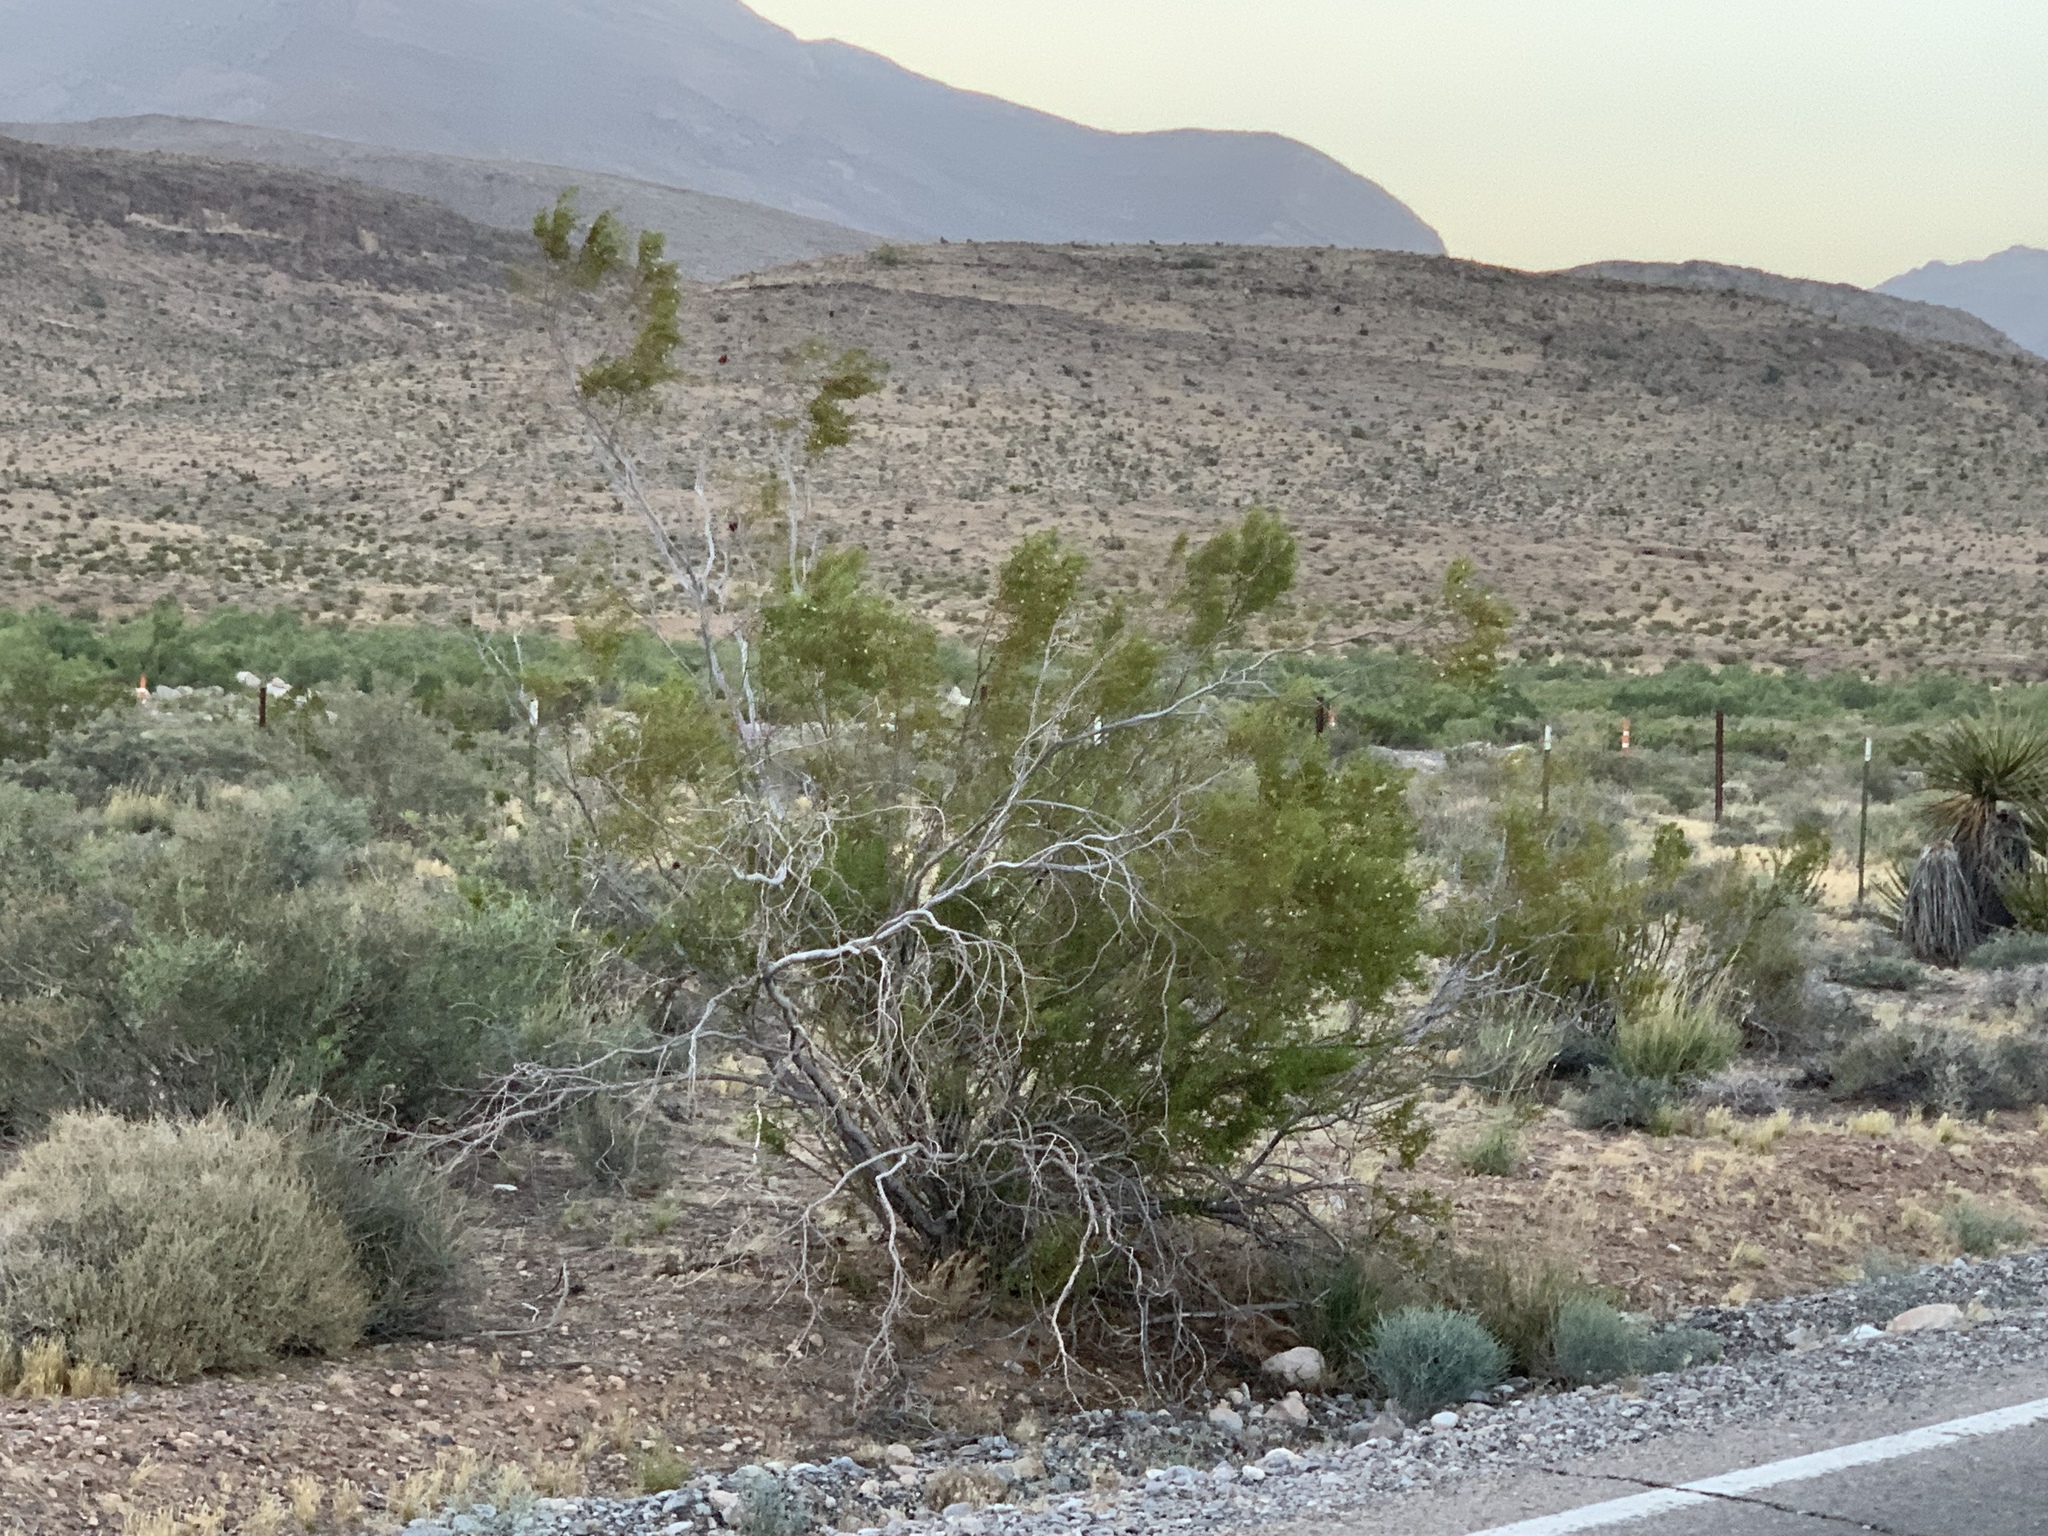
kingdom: Plantae
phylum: Tracheophyta
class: Magnoliopsida
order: Zygophyllales
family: Zygophyllaceae
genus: Larrea
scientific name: Larrea tridentata
